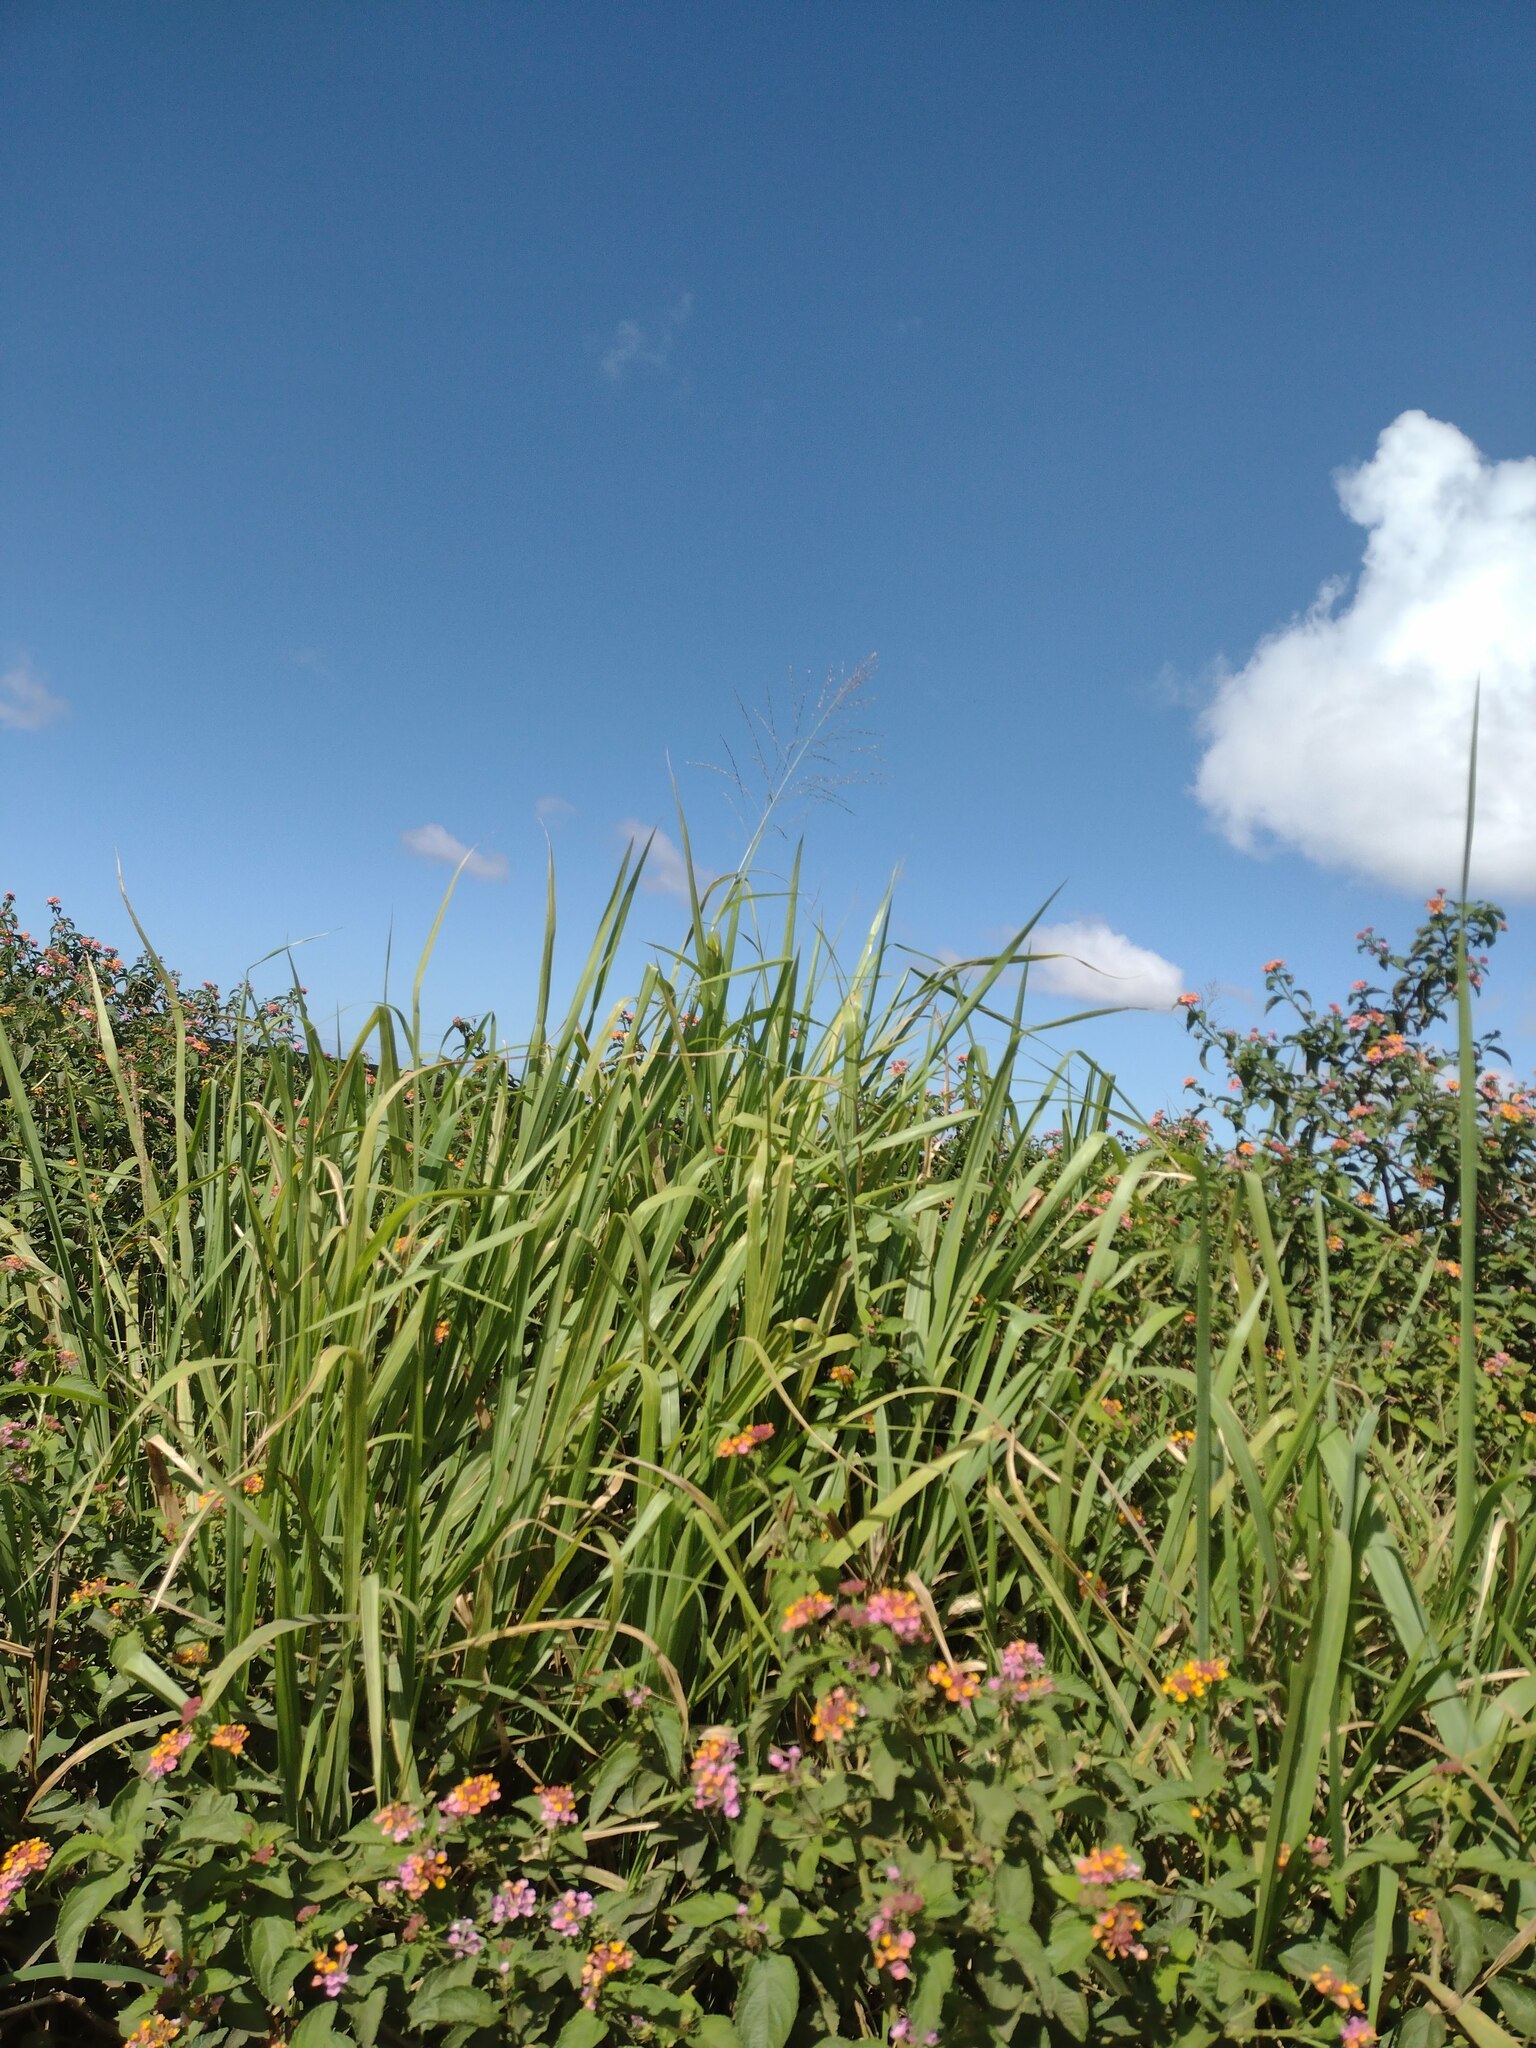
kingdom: Plantae
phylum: Tracheophyta
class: Liliopsida
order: Poales
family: Poaceae
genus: Megathyrsus
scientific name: Megathyrsus maximus
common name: Guineagrass
